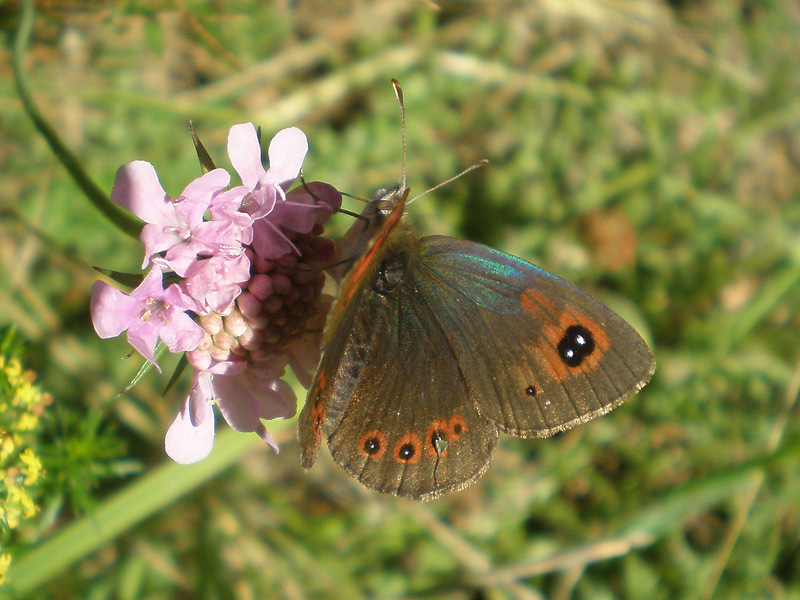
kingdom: Animalia
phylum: Arthropoda
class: Insecta
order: Lepidoptera
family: Nymphalidae
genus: Erebia
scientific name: Erebia cassioides
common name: Common brassy ringlet
